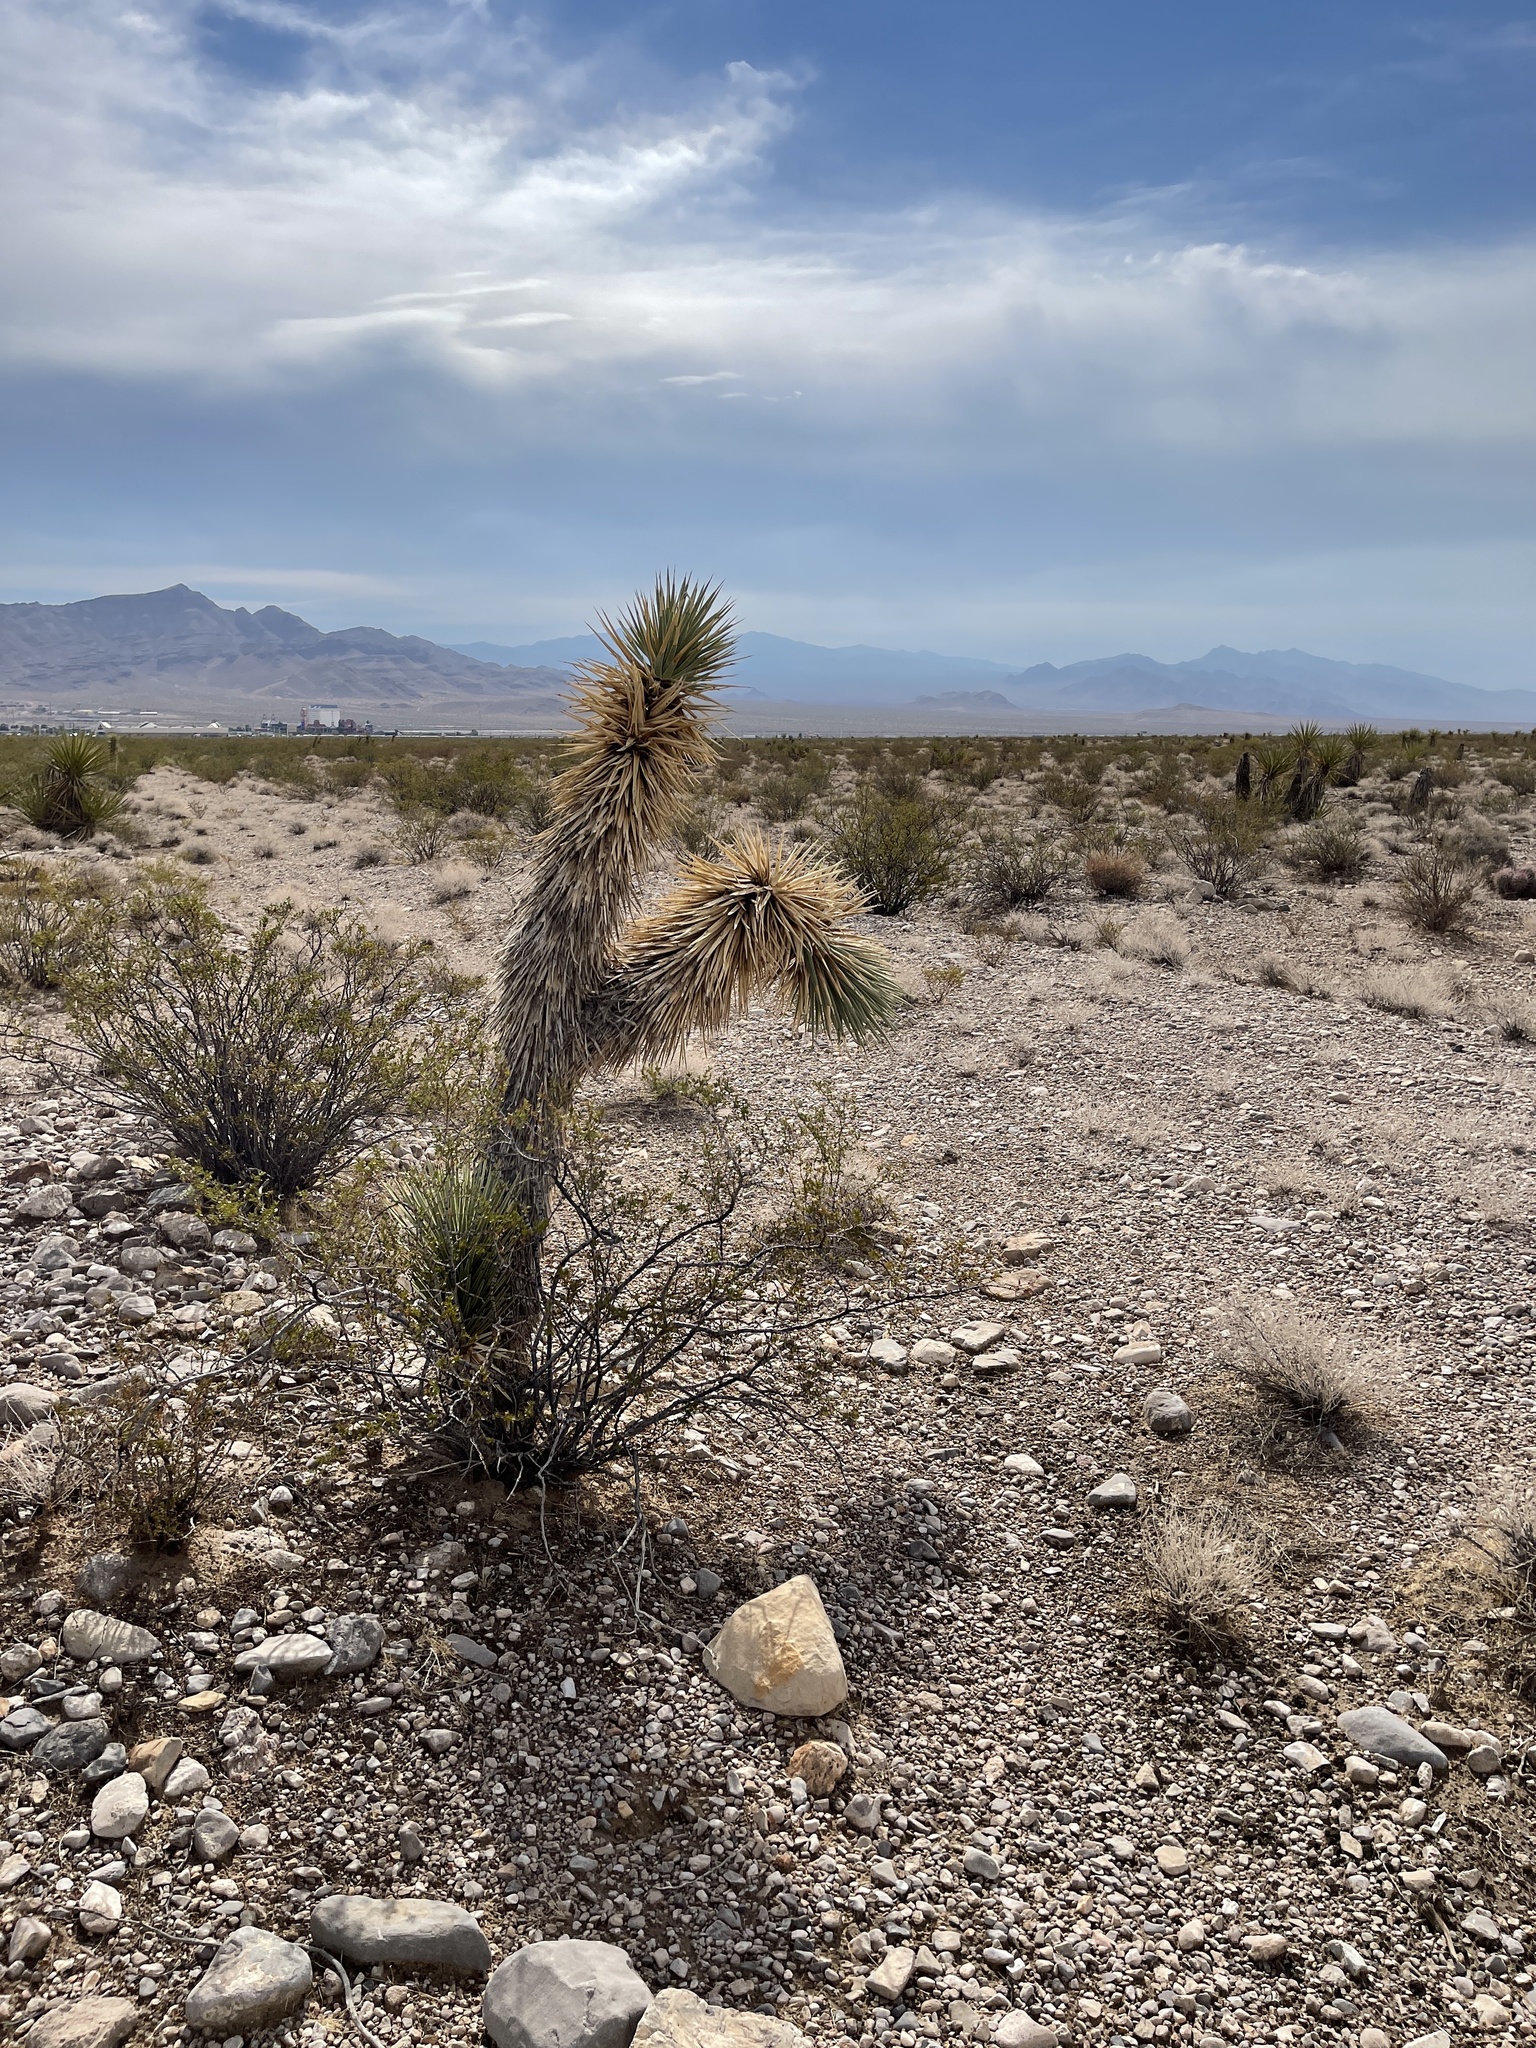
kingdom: Plantae
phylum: Tracheophyta
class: Liliopsida
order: Asparagales
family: Asparagaceae
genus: Yucca
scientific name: Yucca brevifolia
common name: Joshua tree
